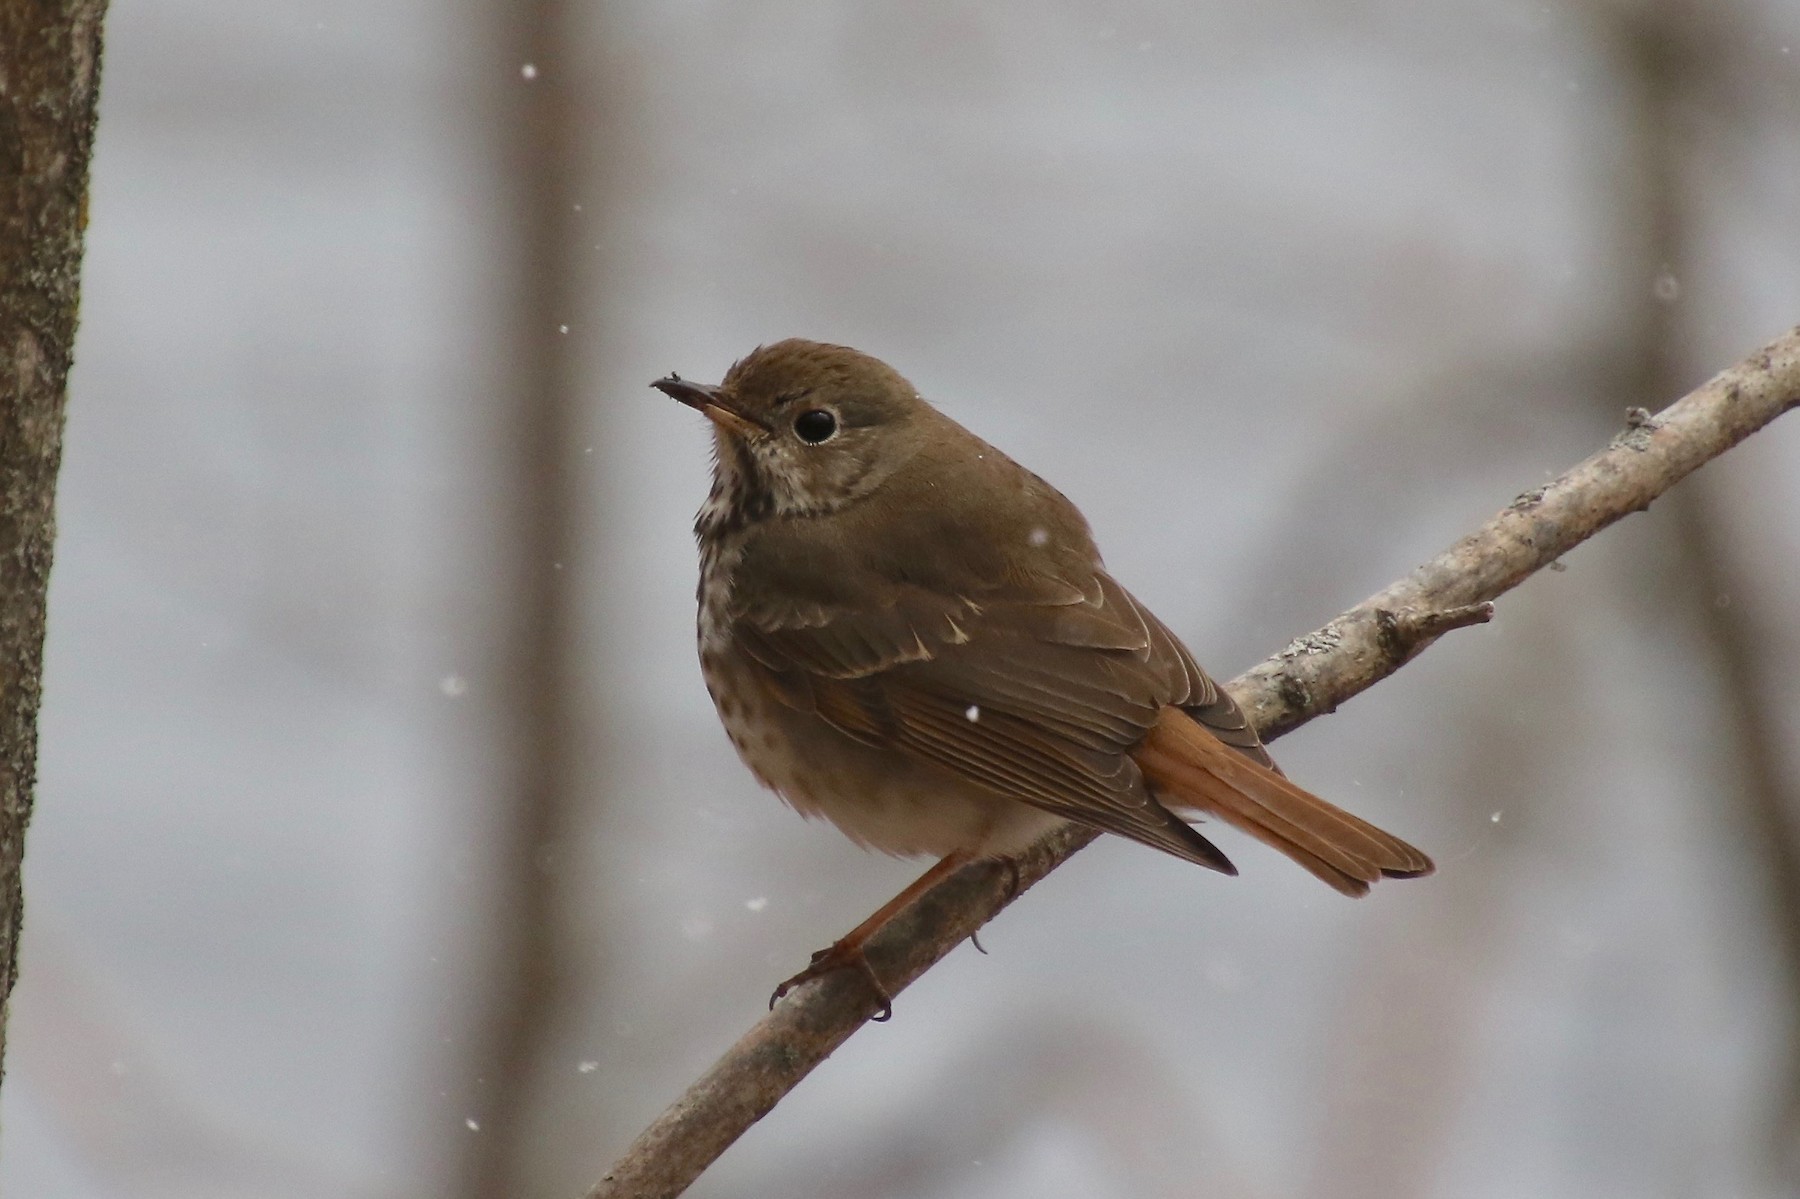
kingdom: Animalia
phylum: Chordata
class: Aves
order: Passeriformes
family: Turdidae
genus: Catharus
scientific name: Catharus guttatus
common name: Hermit thrush
